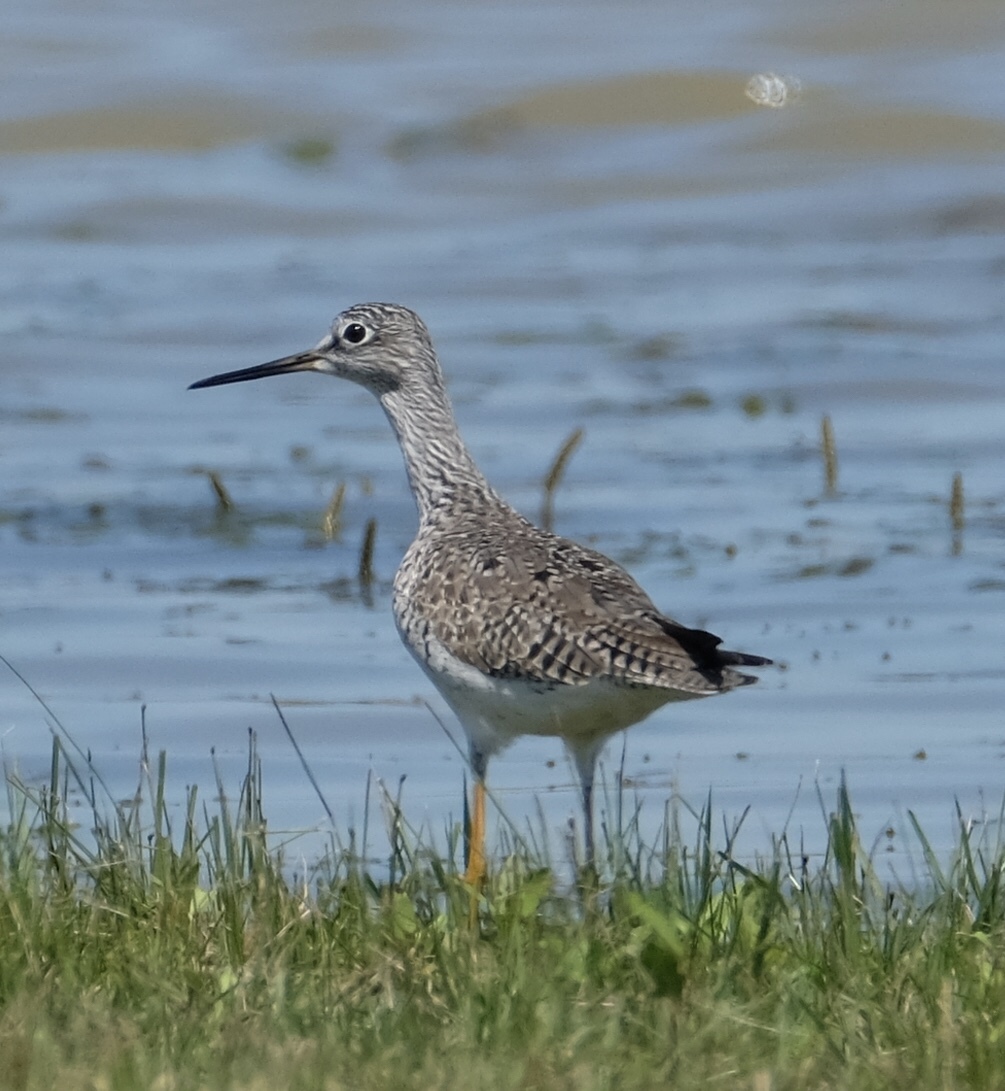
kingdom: Animalia
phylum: Chordata
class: Aves
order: Charadriiformes
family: Scolopacidae
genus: Tringa
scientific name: Tringa melanoleuca
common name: Greater yellowlegs
